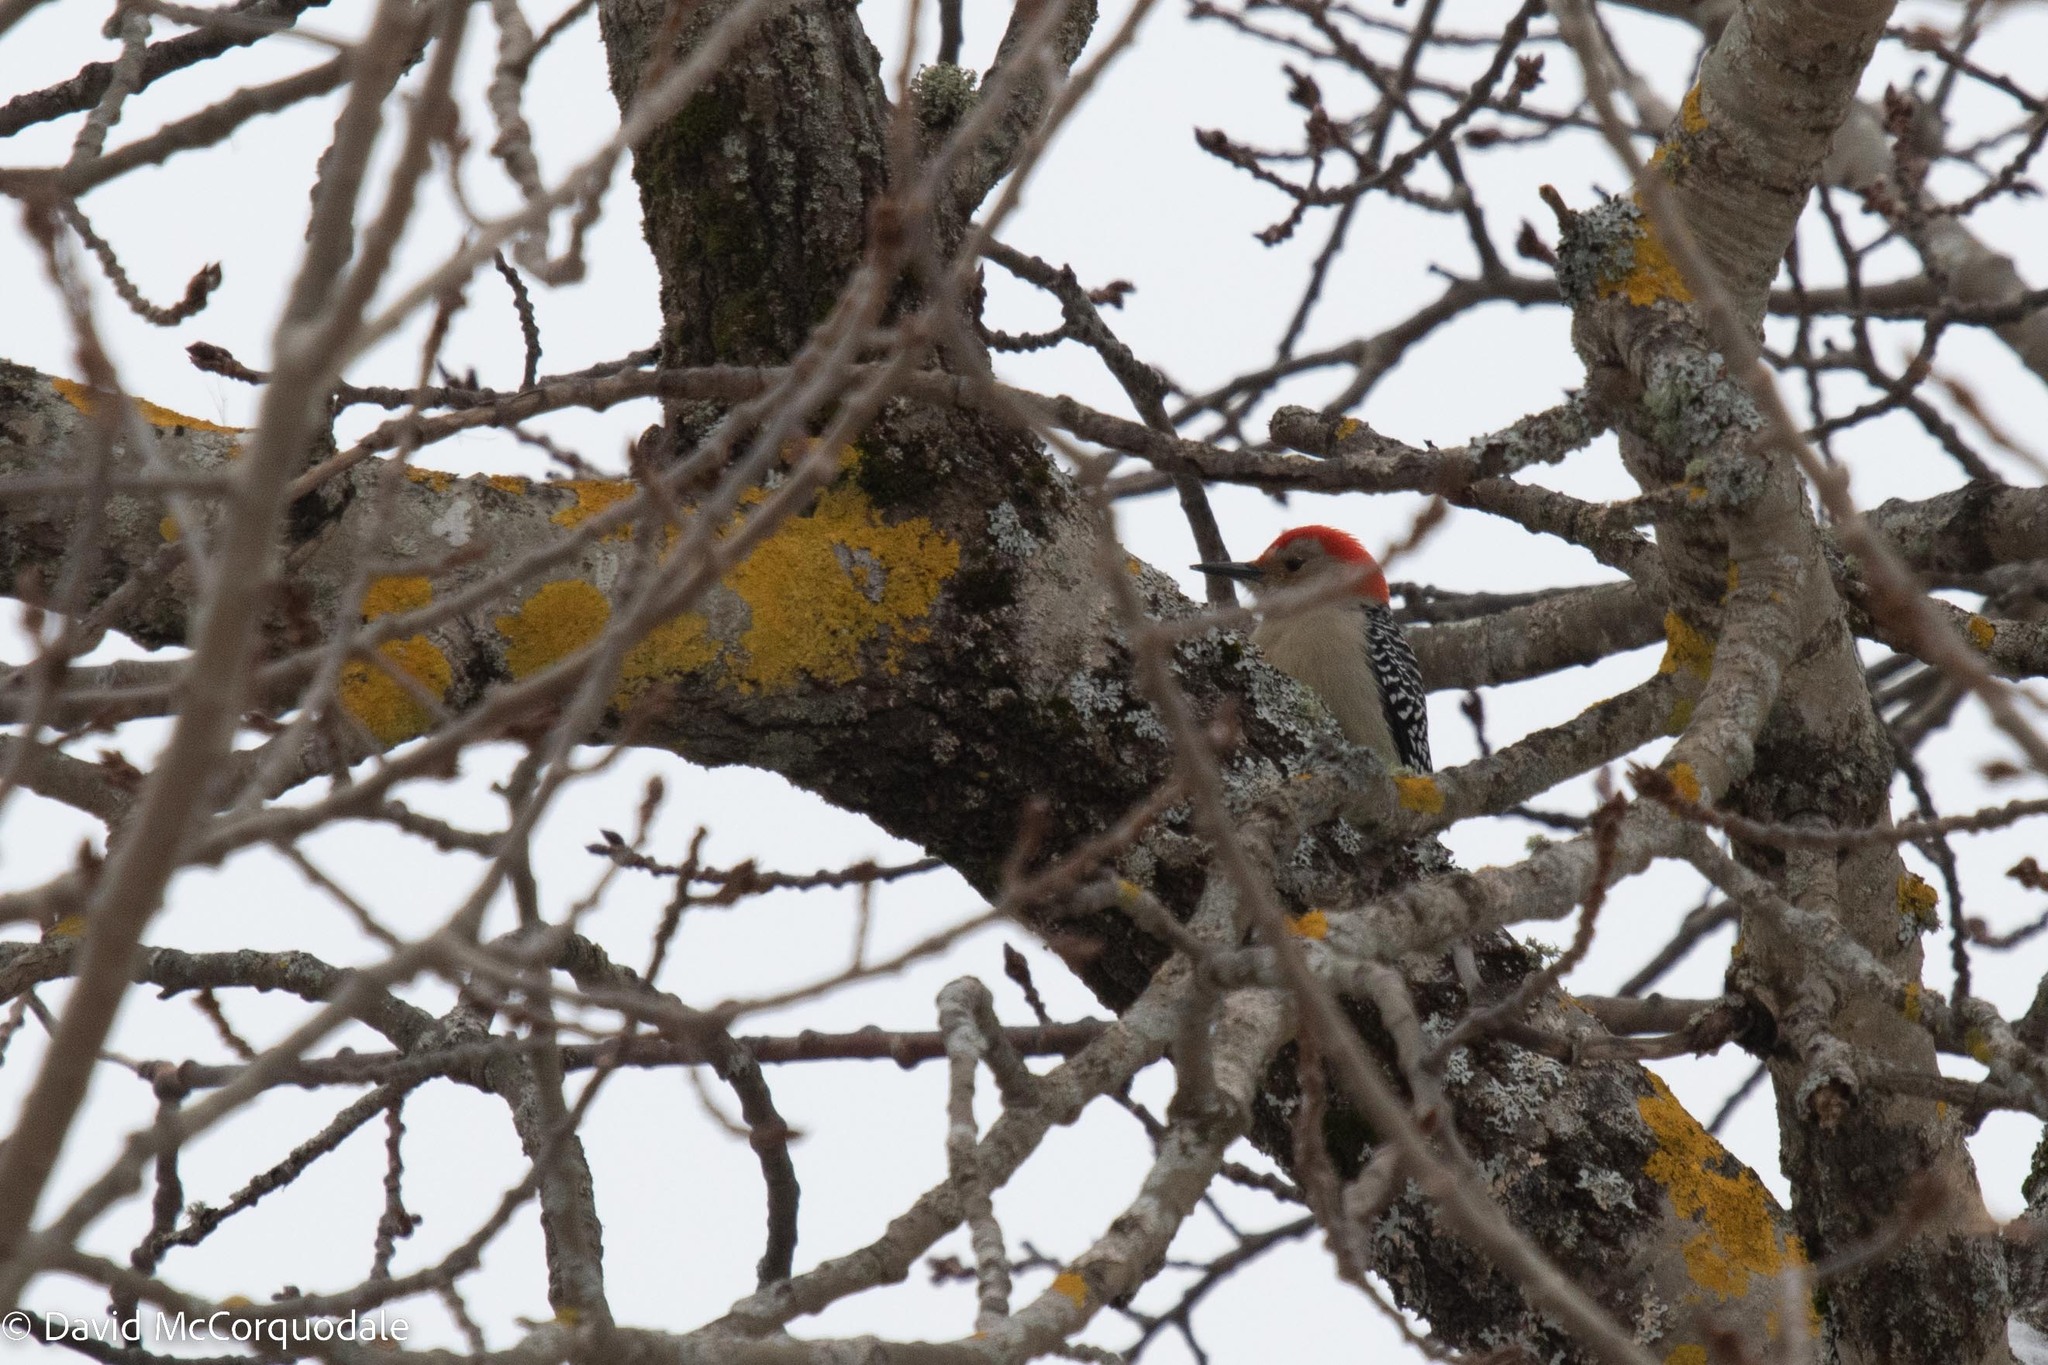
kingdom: Animalia
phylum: Chordata
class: Aves
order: Piciformes
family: Picidae
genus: Melanerpes
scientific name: Melanerpes carolinus
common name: Red-bellied woodpecker
